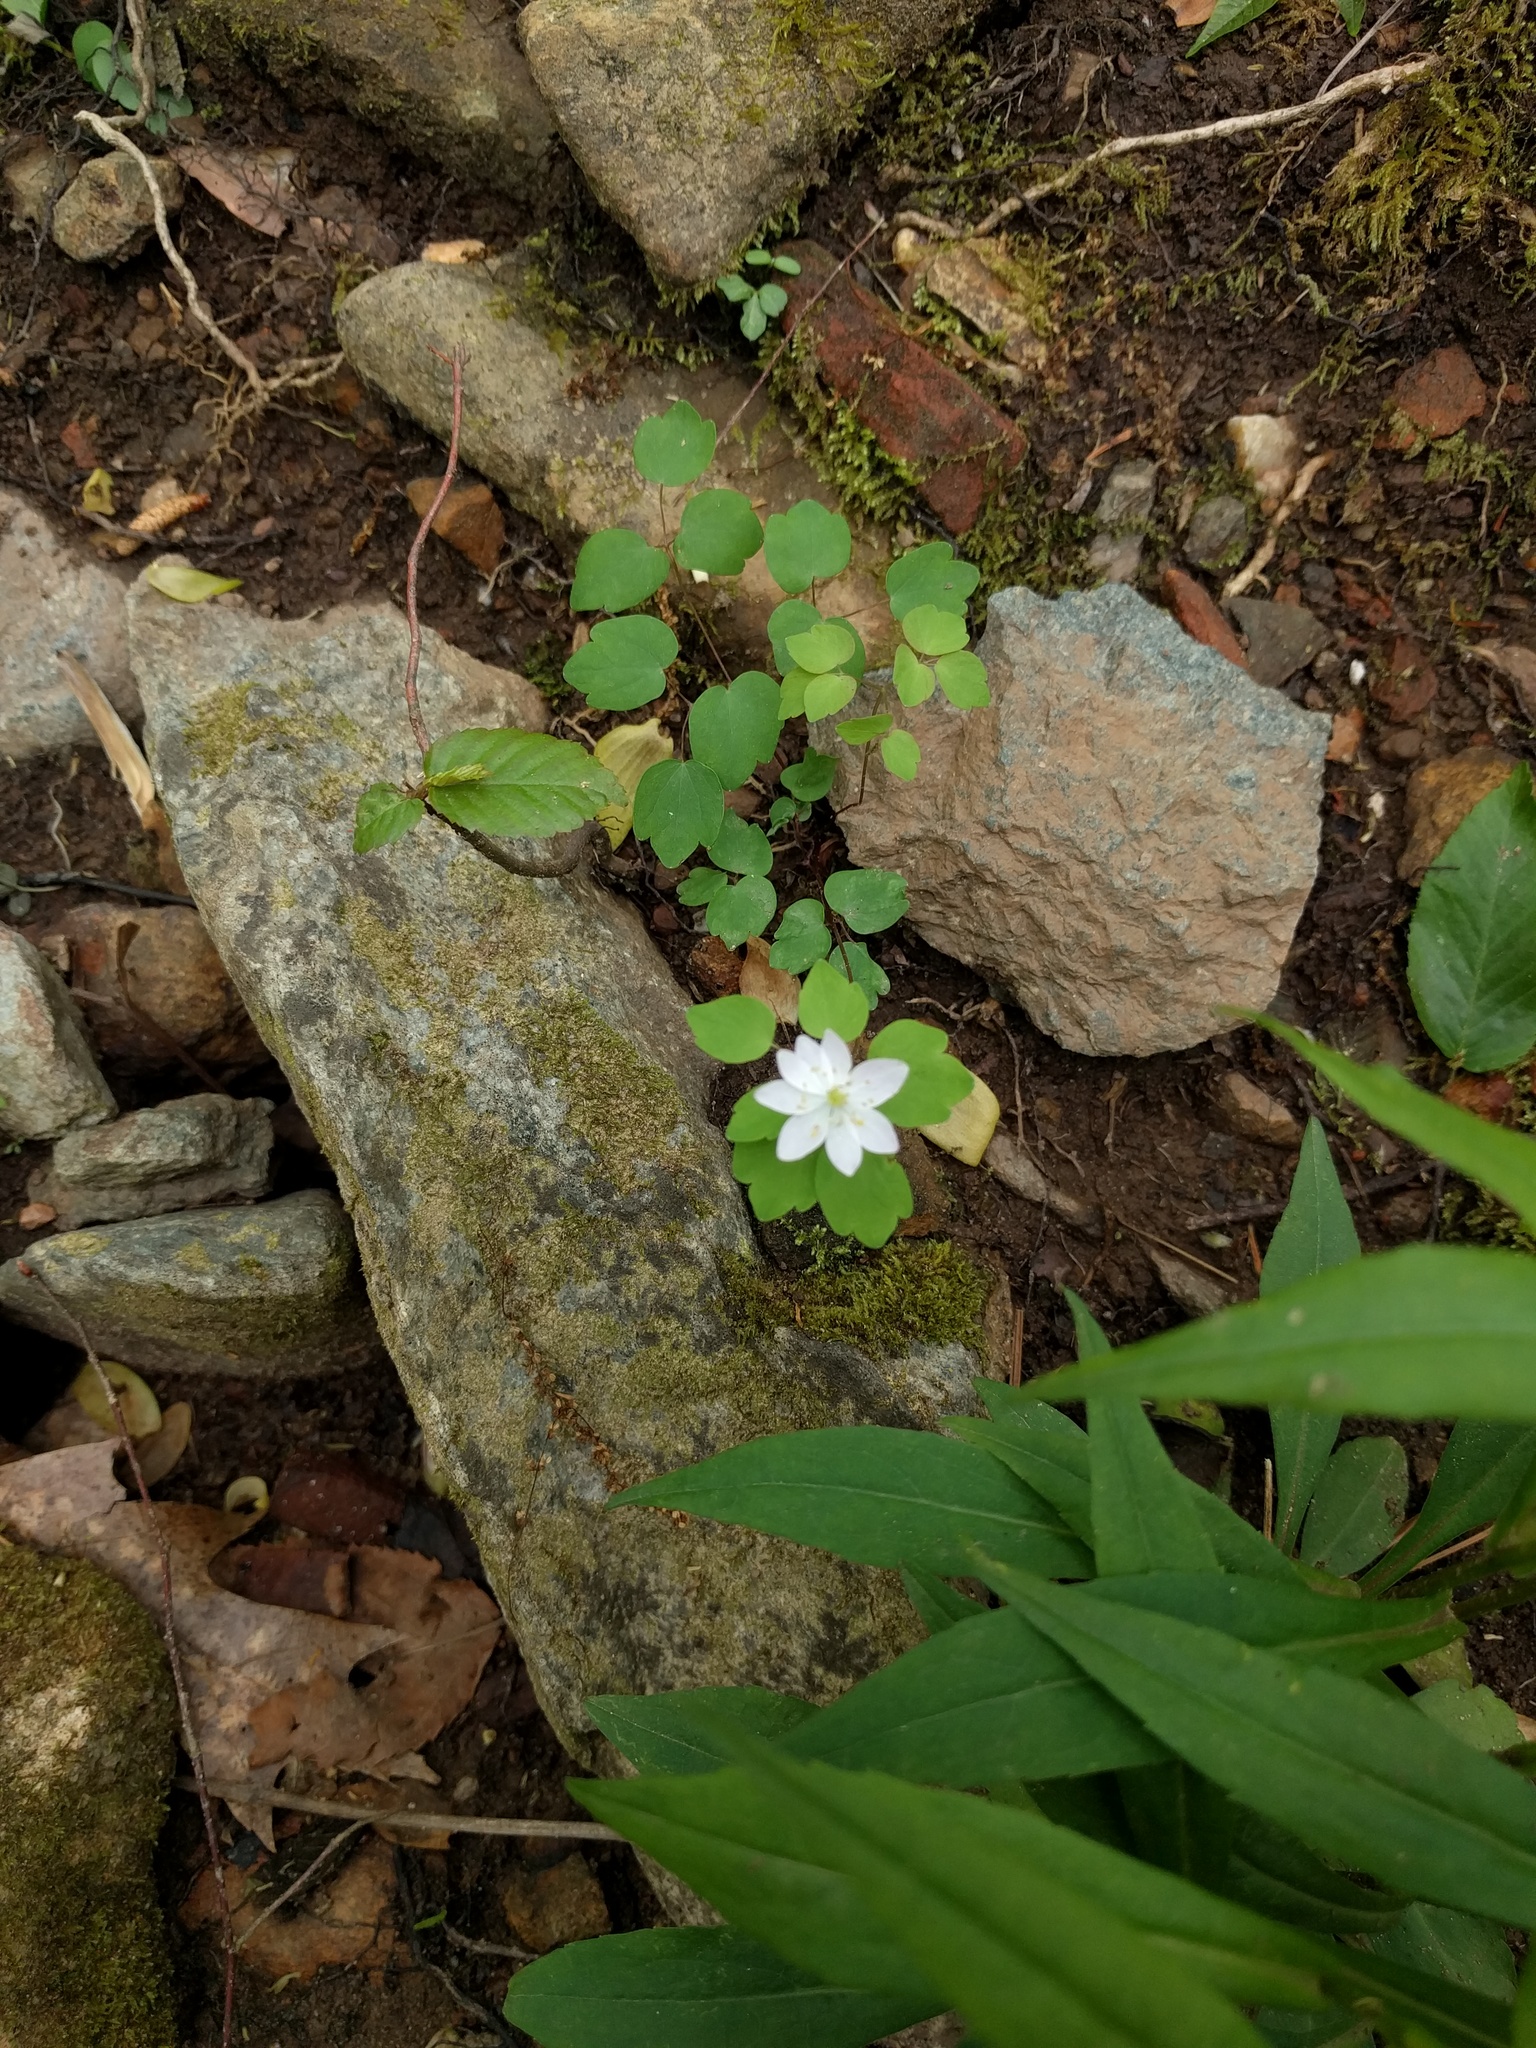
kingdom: Plantae
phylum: Tracheophyta
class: Magnoliopsida
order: Ranunculales
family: Ranunculaceae
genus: Thalictrum
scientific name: Thalictrum thalictroides
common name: Rue-anemone
